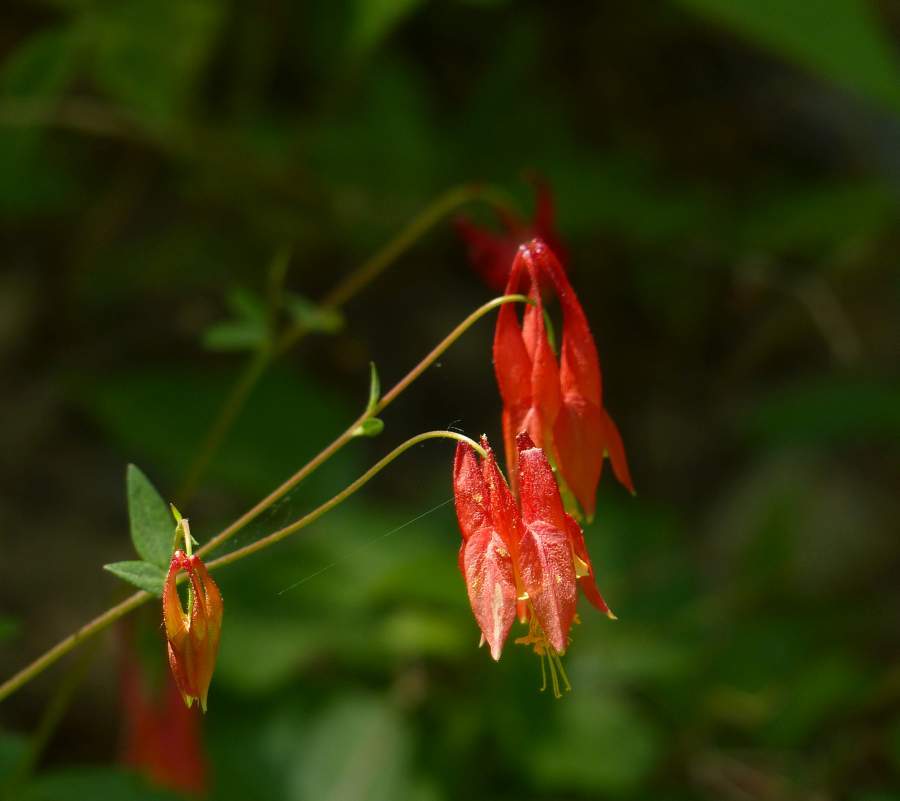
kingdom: Plantae
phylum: Tracheophyta
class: Magnoliopsida
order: Ranunculales
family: Ranunculaceae
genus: Aquilegia
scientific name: Aquilegia canadensis
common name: American columbine
